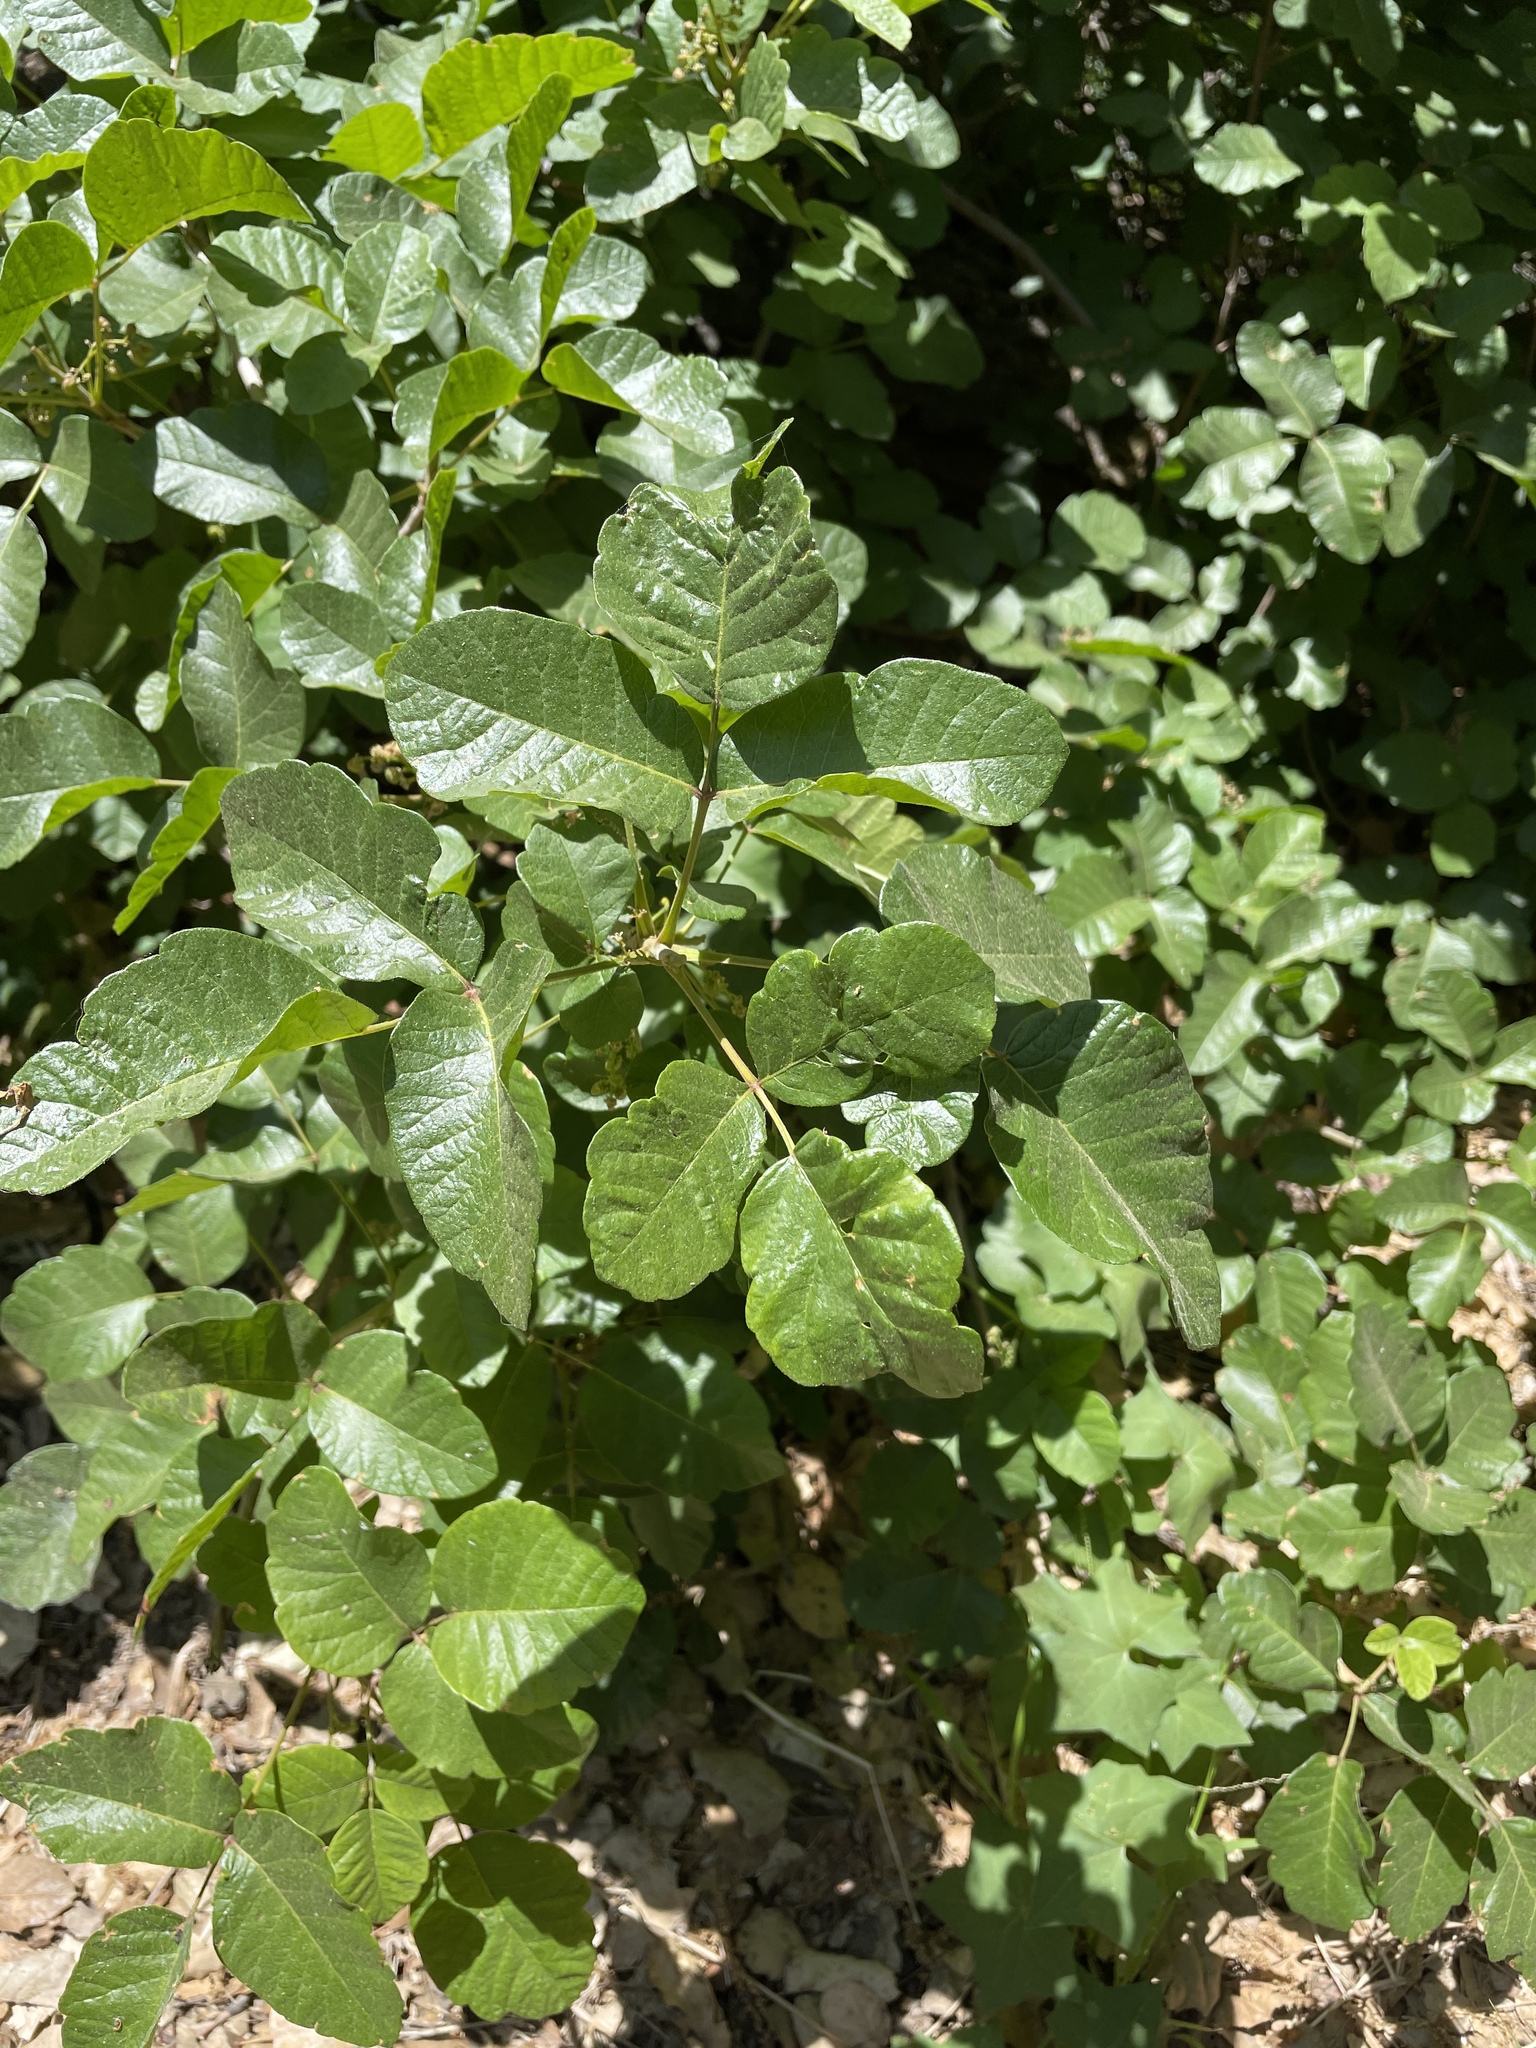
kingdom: Plantae
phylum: Tracheophyta
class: Magnoliopsida
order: Sapindales
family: Anacardiaceae
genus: Toxicodendron
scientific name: Toxicodendron diversilobum
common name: Pacific poison-oak
